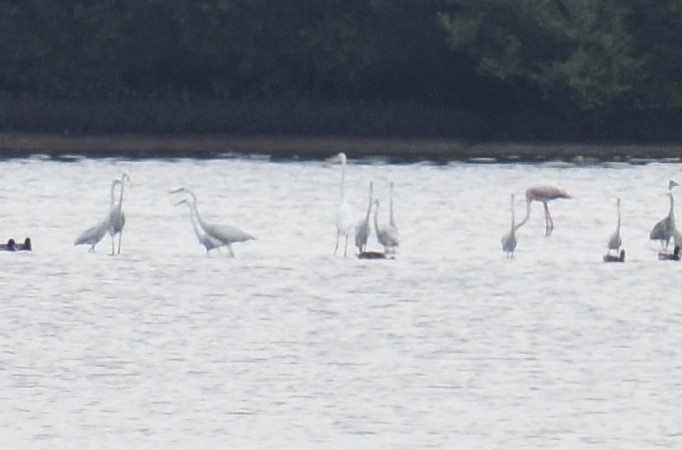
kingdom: Animalia
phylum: Chordata
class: Aves
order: Pelecaniformes
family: Ardeidae
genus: Ardea
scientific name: Ardea alba
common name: Great egret
